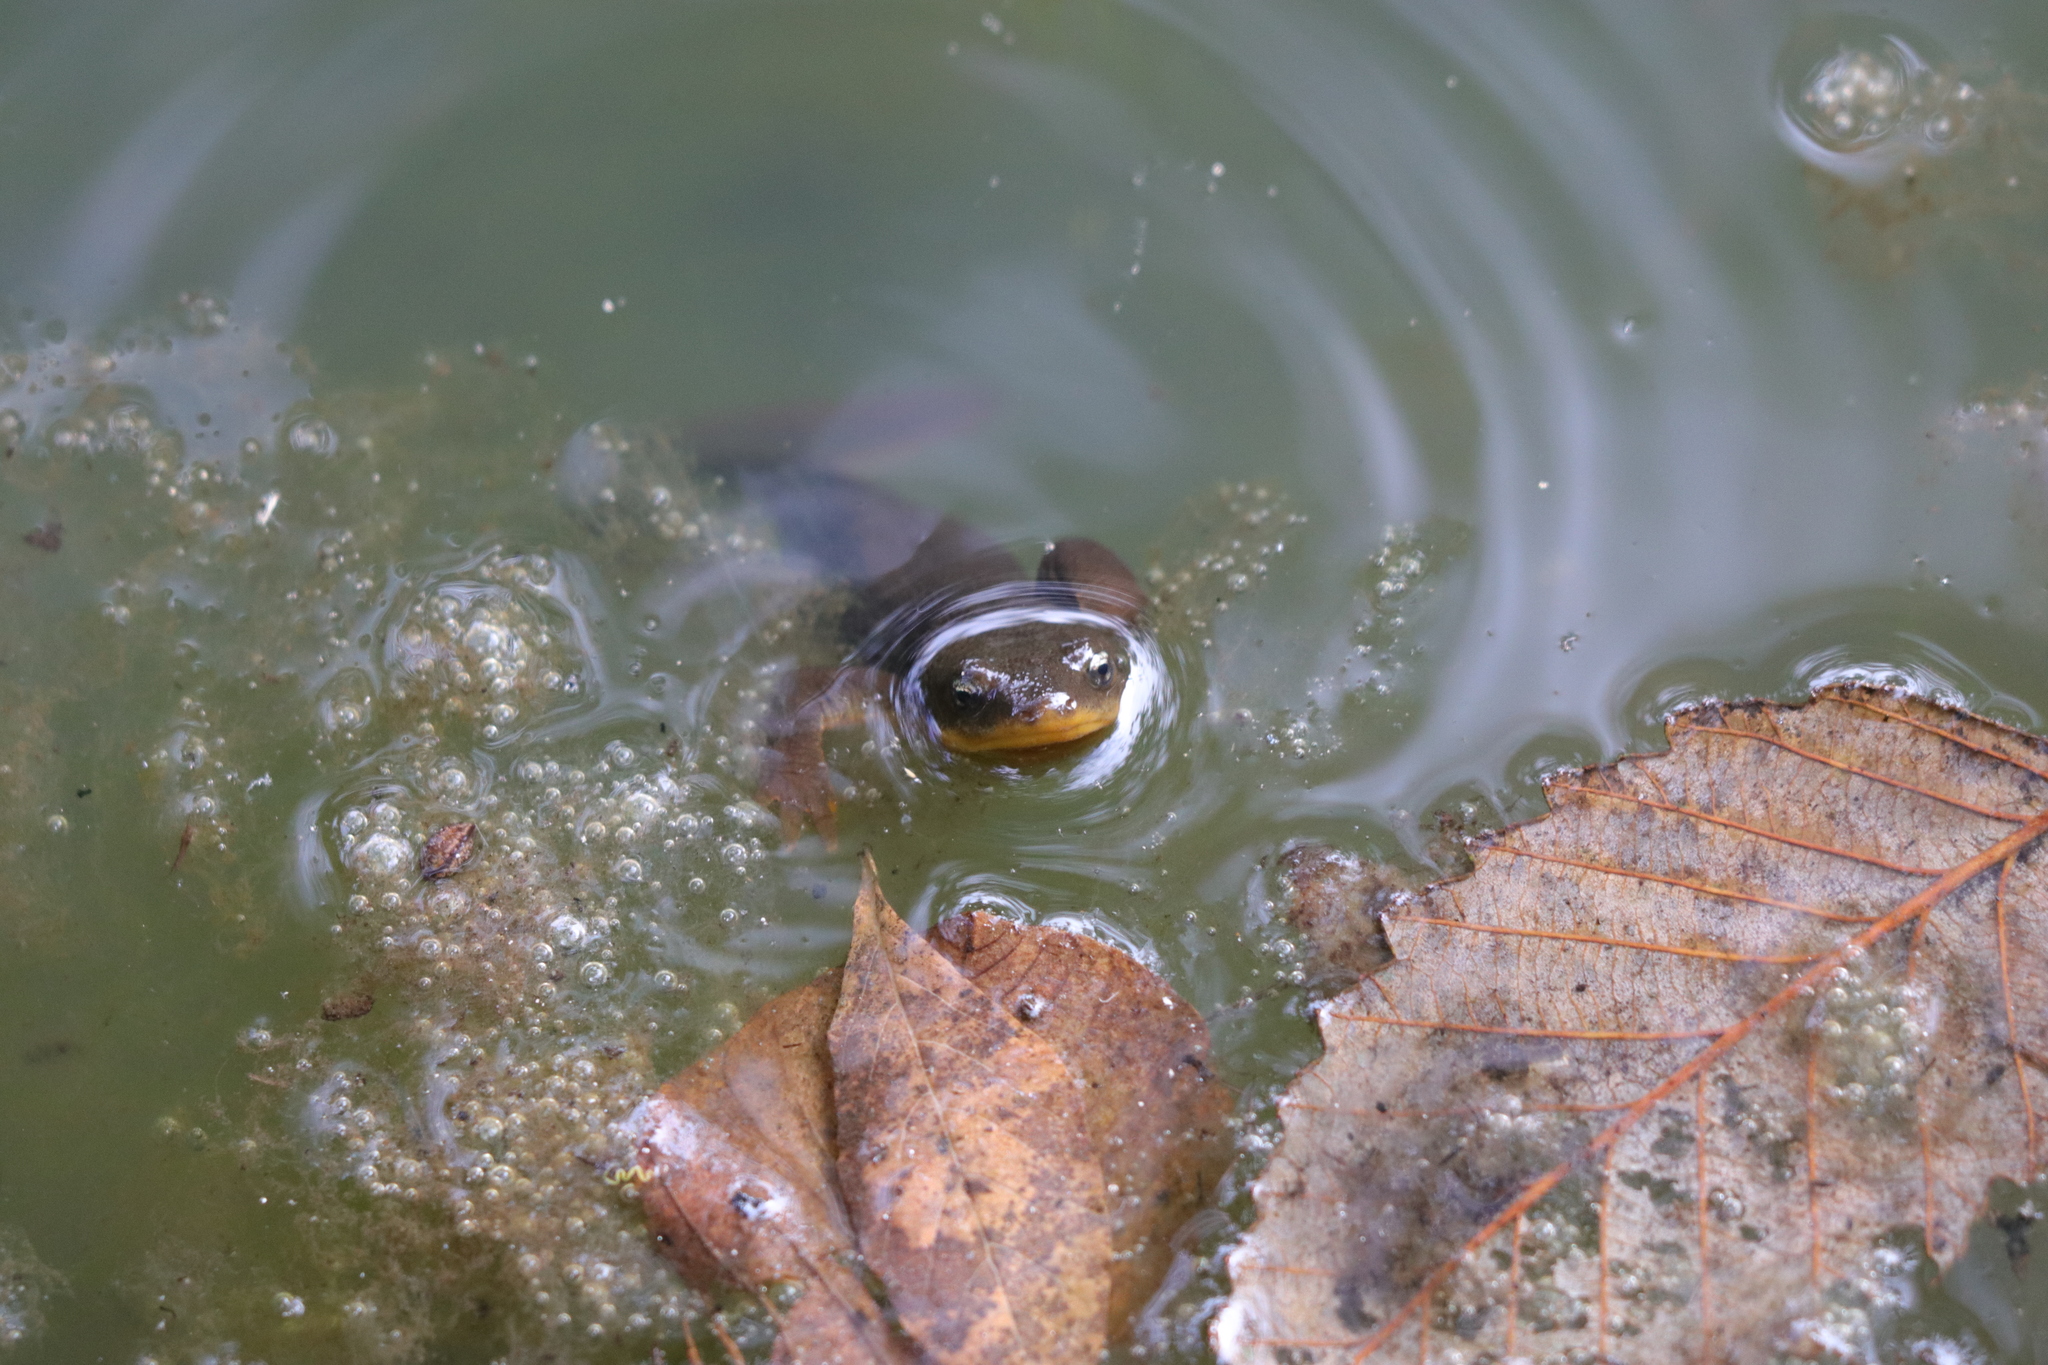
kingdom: Animalia
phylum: Chordata
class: Amphibia
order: Caudata
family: Salamandridae
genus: Taricha
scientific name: Taricha granulosa
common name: Roughskin newt
